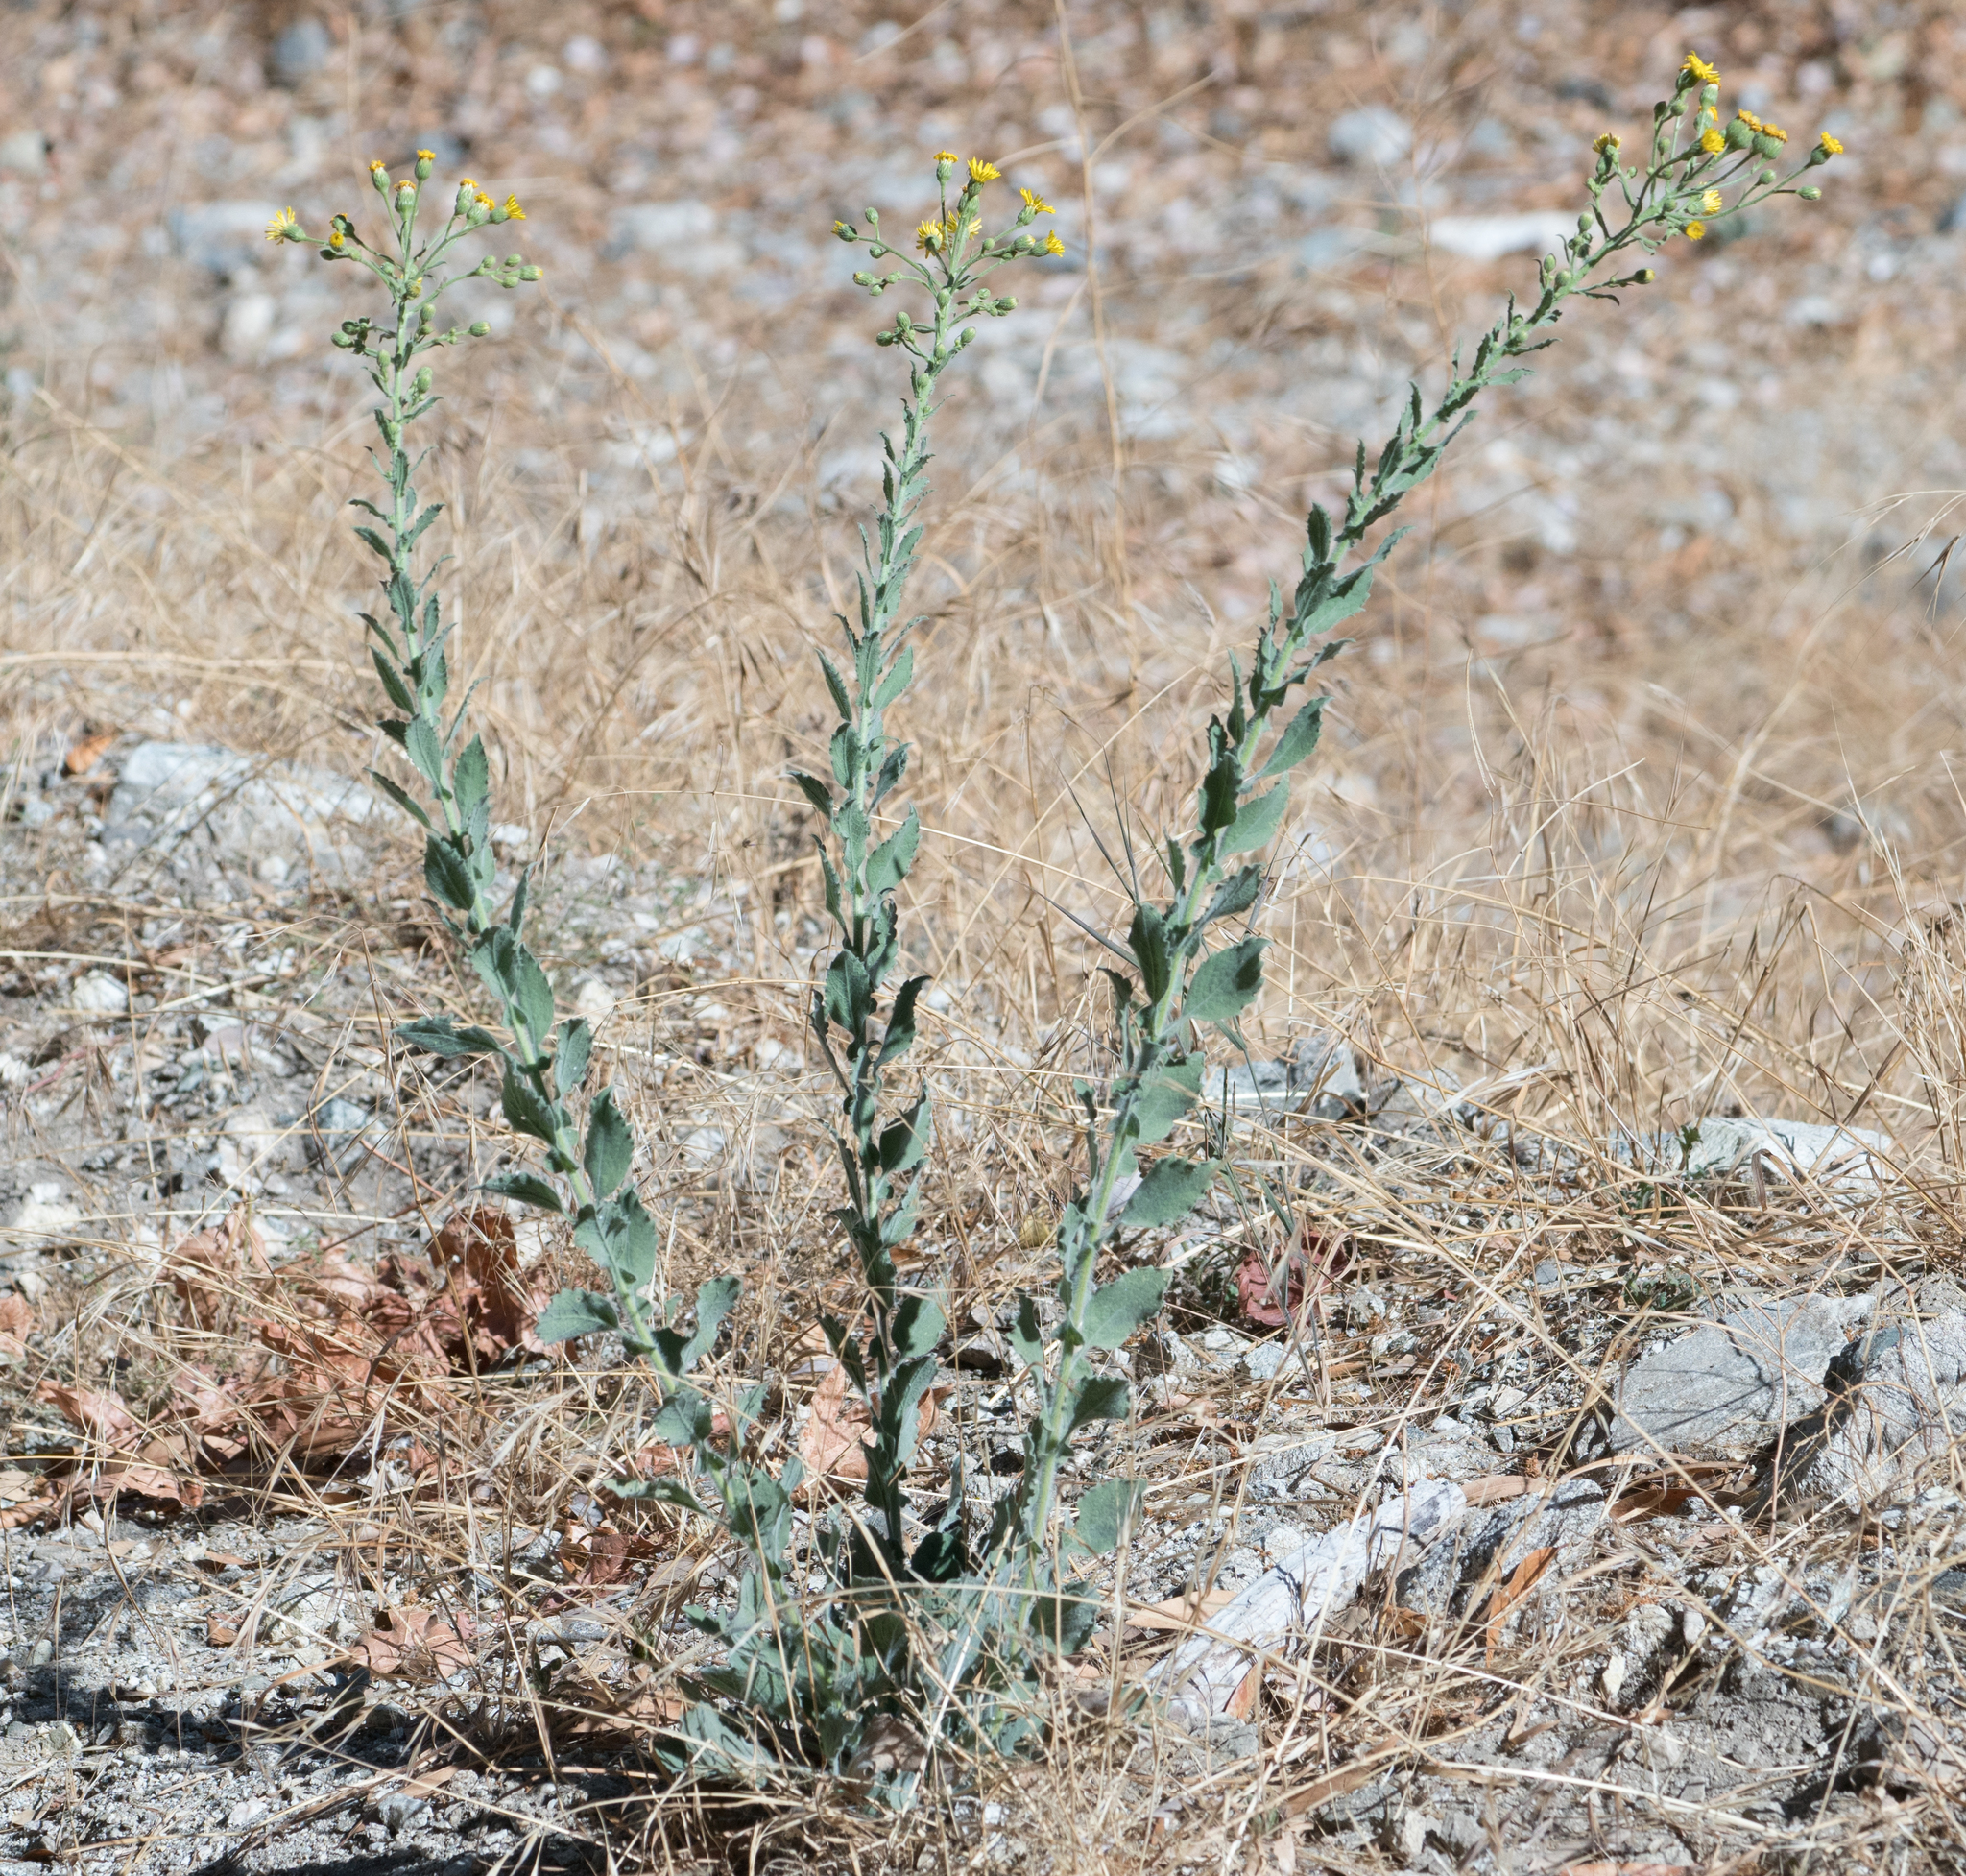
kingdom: Plantae
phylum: Tracheophyta
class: Magnoliopsida
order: Asterales
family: Asteraceae
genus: Heterotheca
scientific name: Heterotheca grandiflora
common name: Telegraphweed
